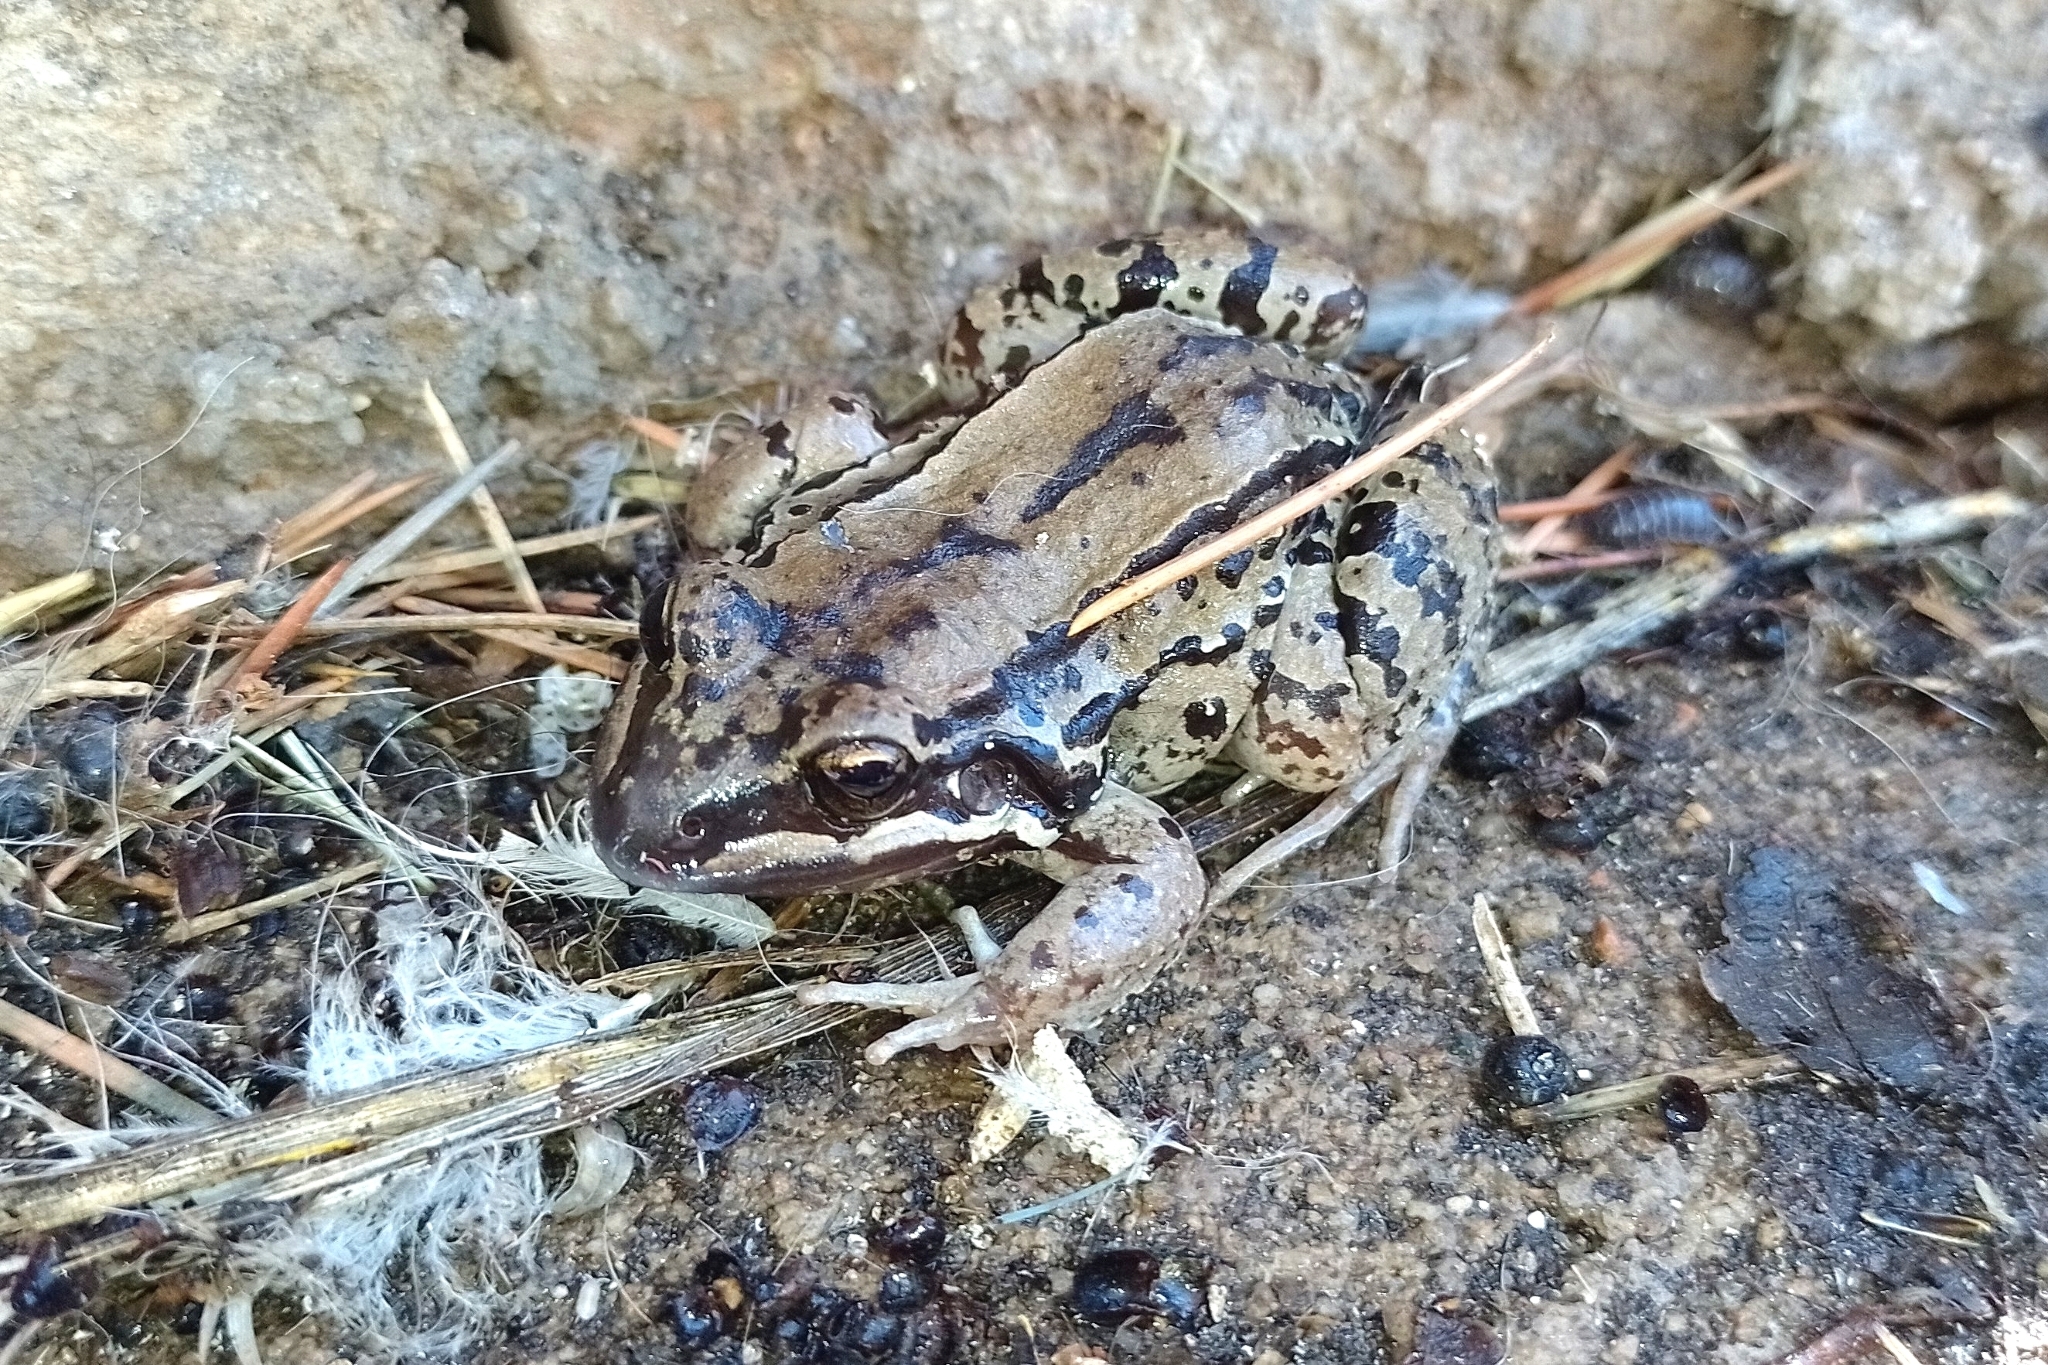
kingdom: Animalia
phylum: Chordata
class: Amphibia
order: Anura
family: Leptodactylidae
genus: Leptodactylus
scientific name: Leptodactylus mystacinus
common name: Moustached frog
